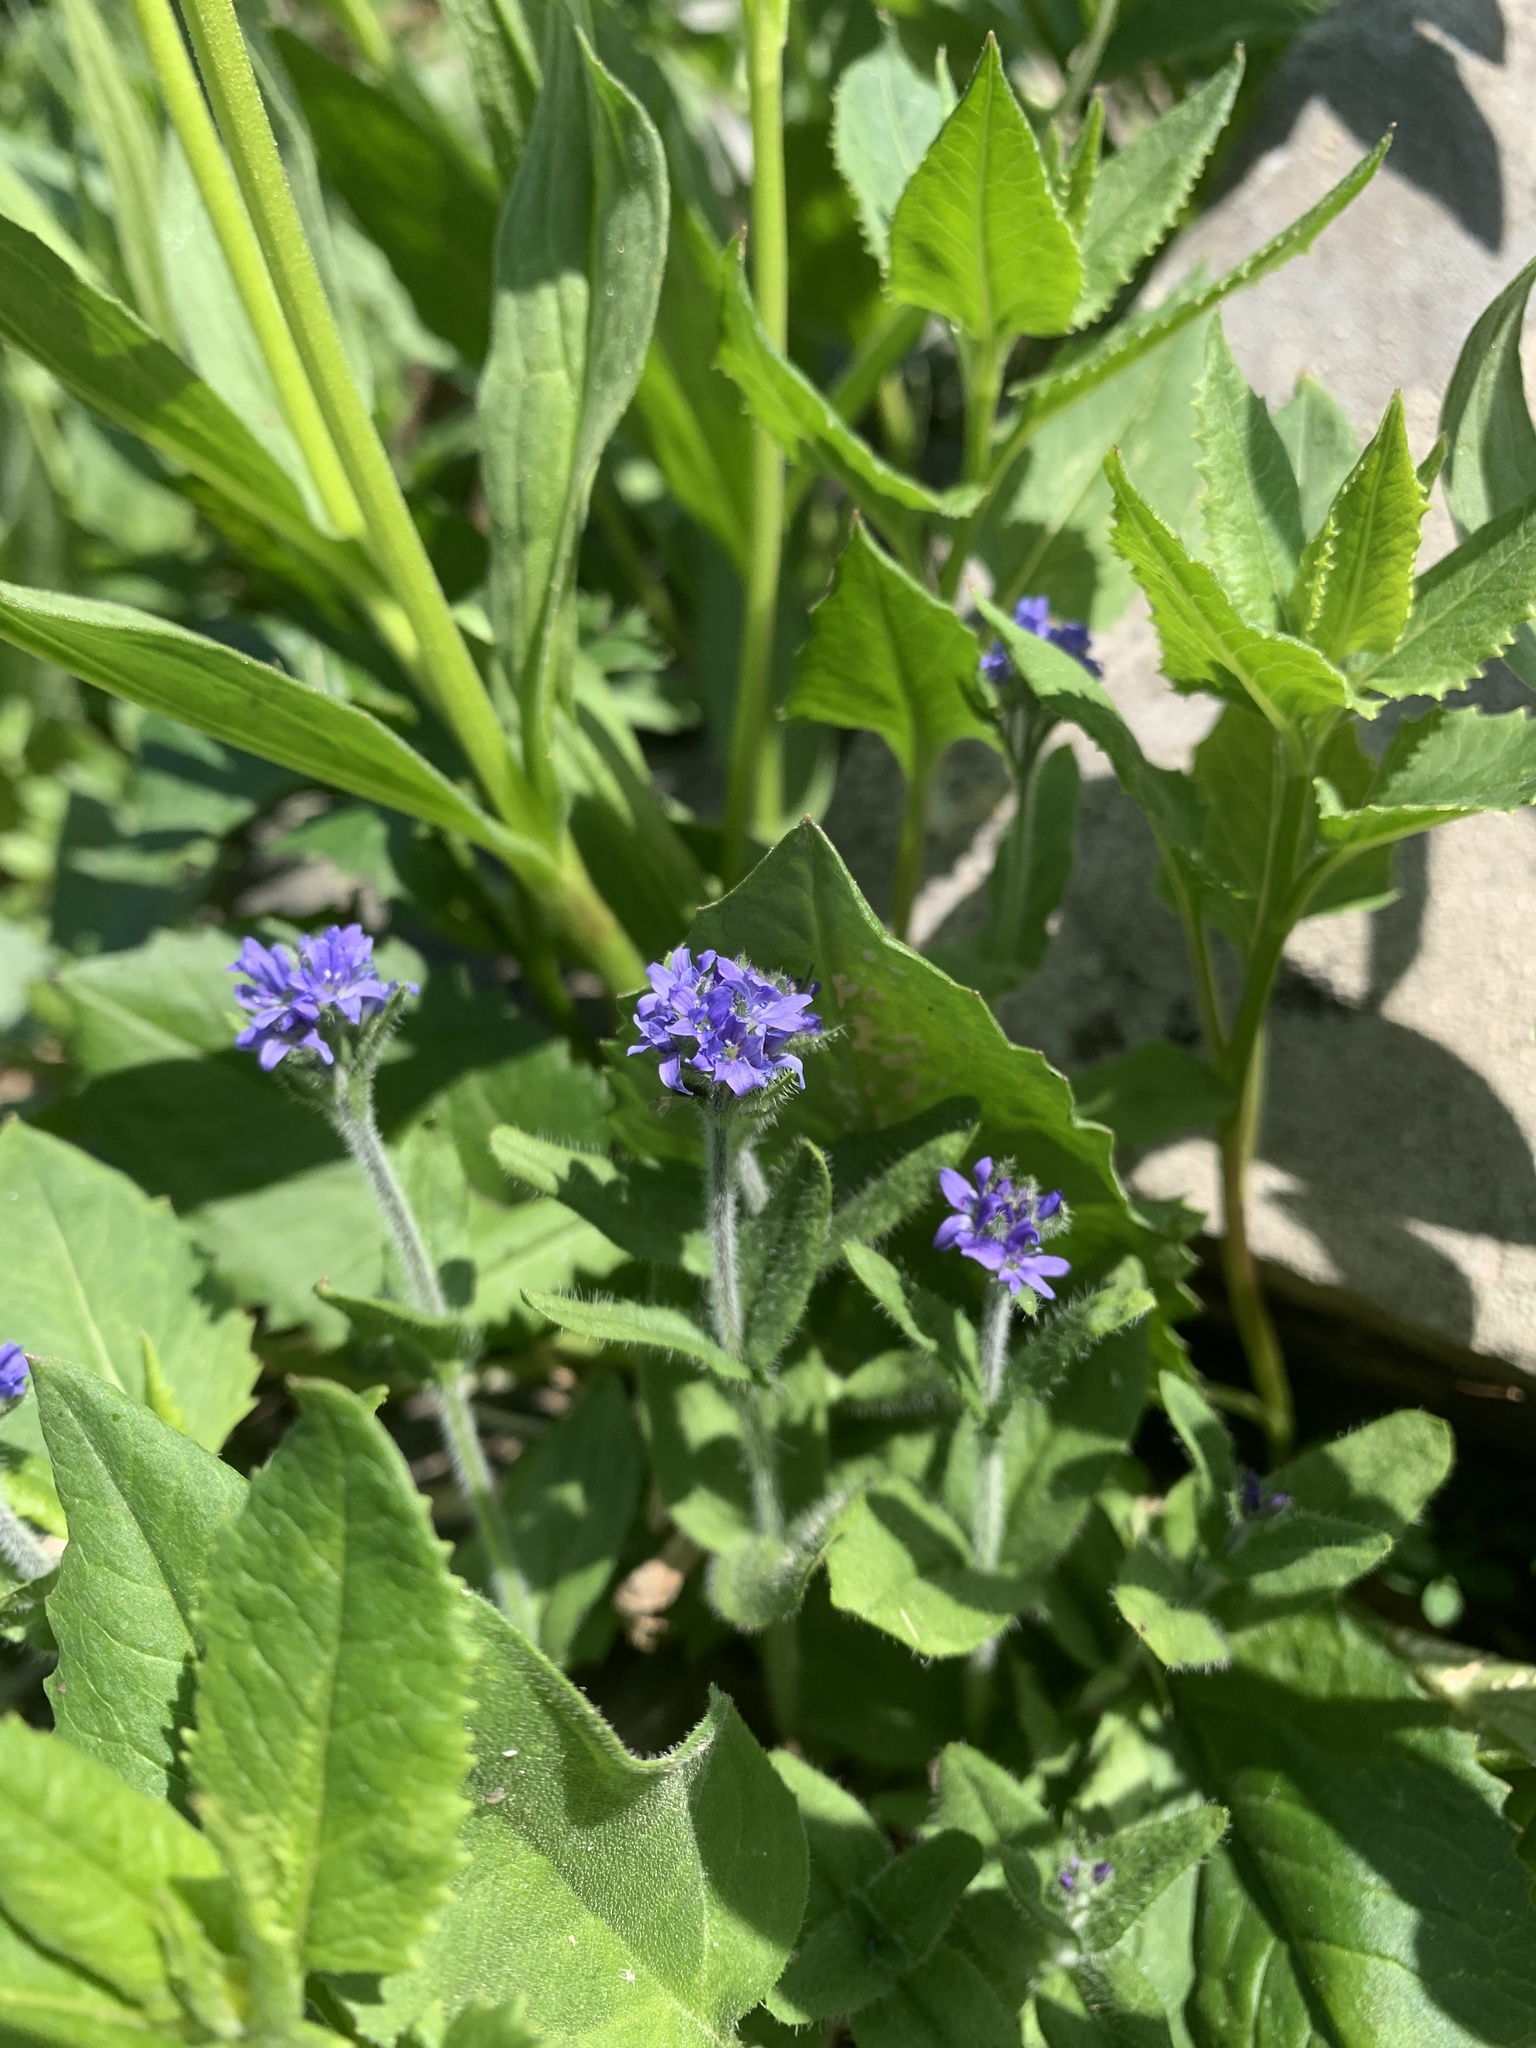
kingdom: Plantae
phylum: Tracheophyta
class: Magnoliopsida
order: Lamiales
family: Plantaginaceae
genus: Veronica
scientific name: Veronica wormskjoldii
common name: American alpine speedwell
